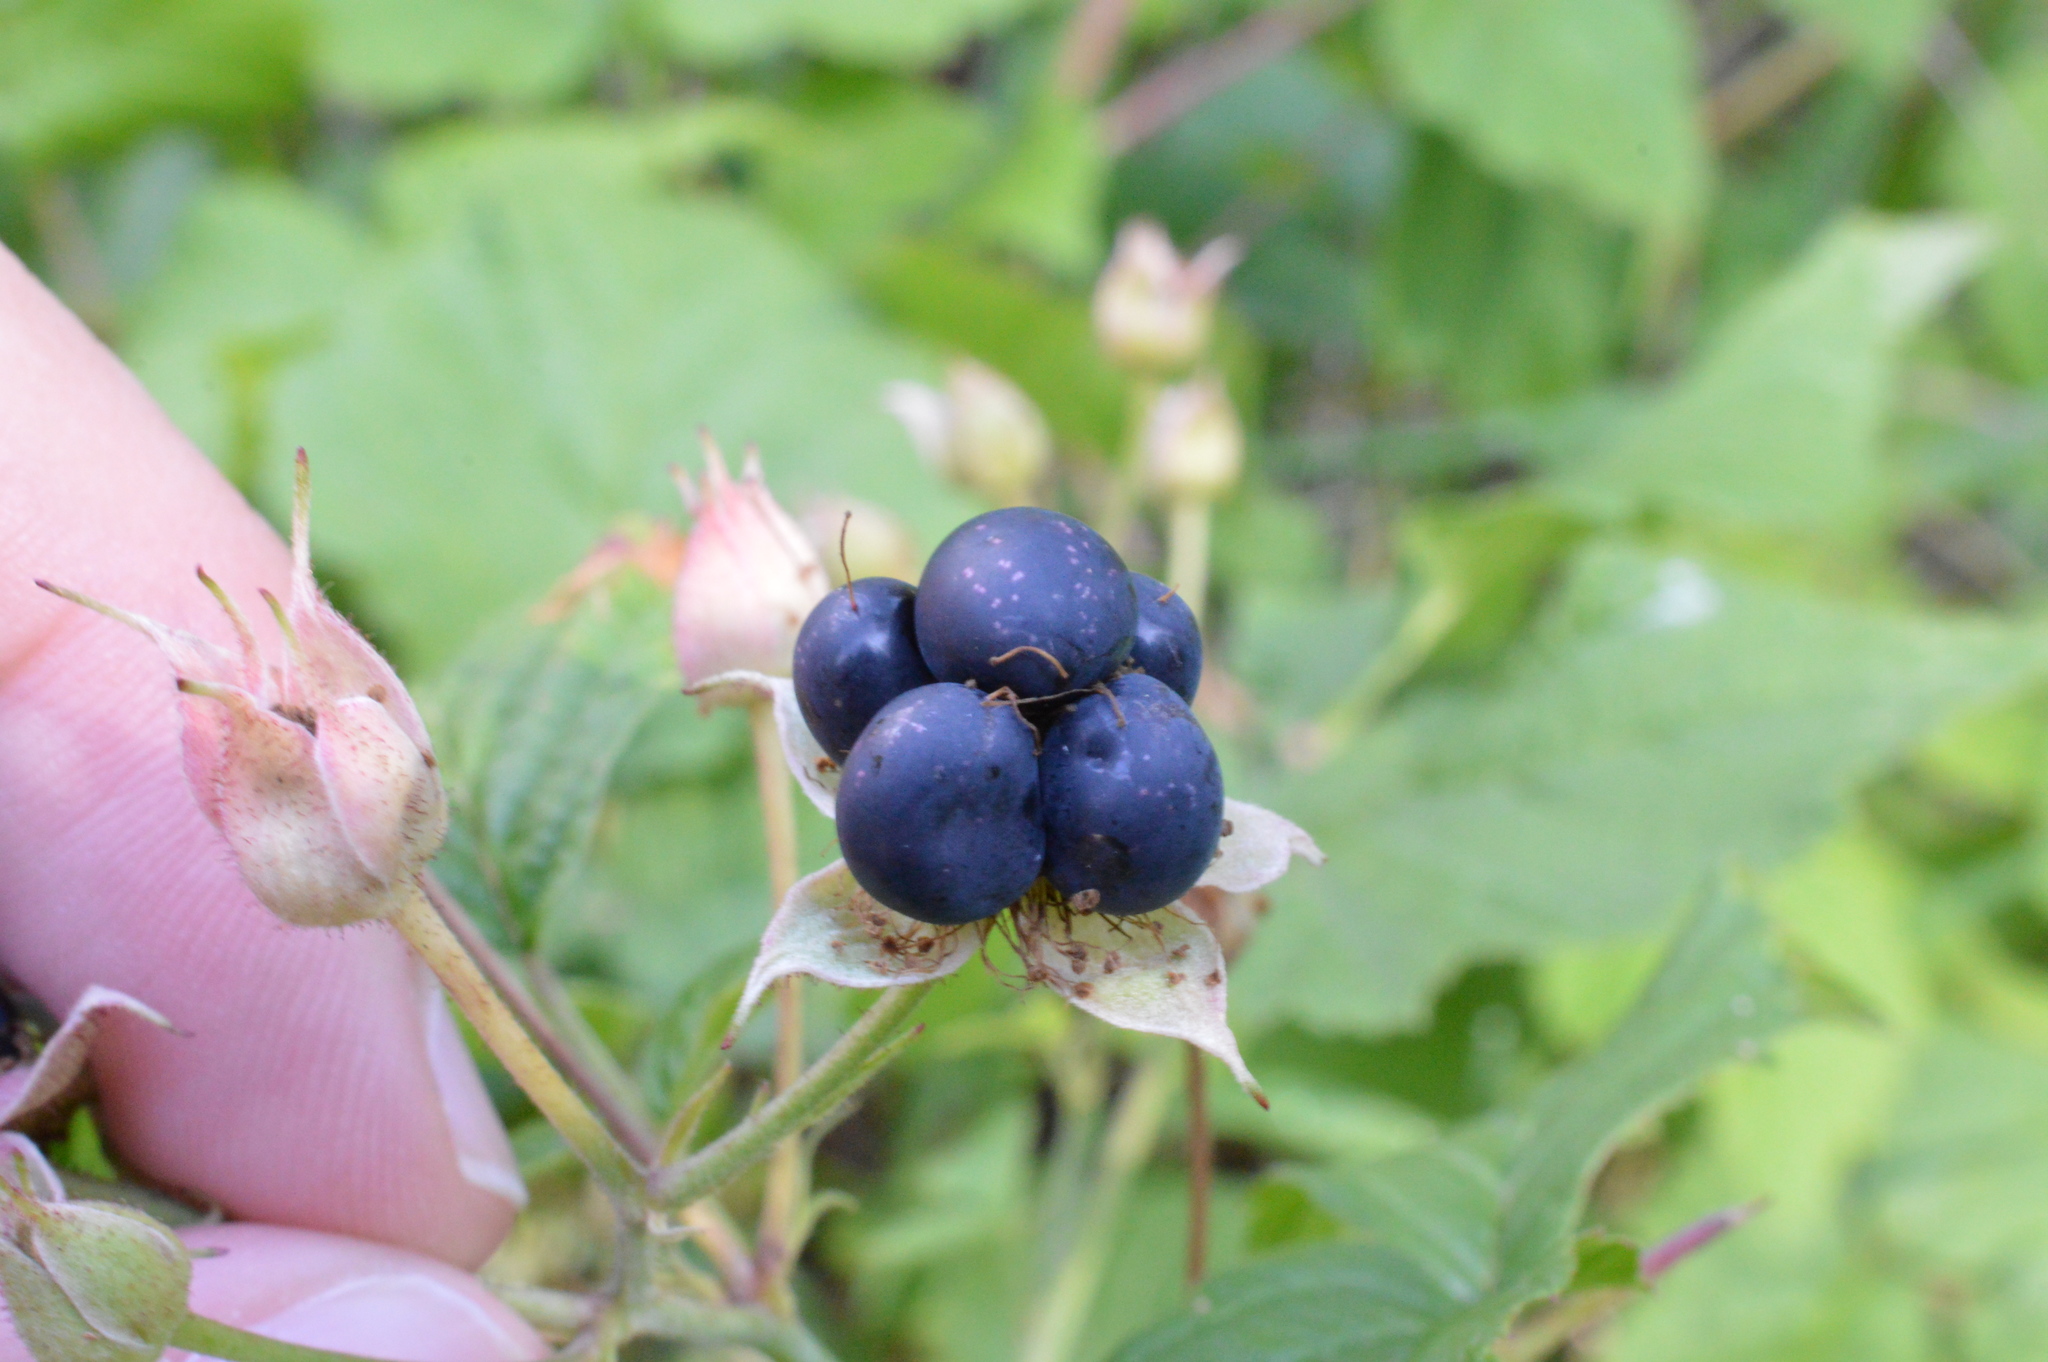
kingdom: Plantae
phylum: Tracheophyta
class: Magnoliopsida
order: Rosales
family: Rosaceae
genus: Rubus
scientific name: Rubus caesius
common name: Dewberry
